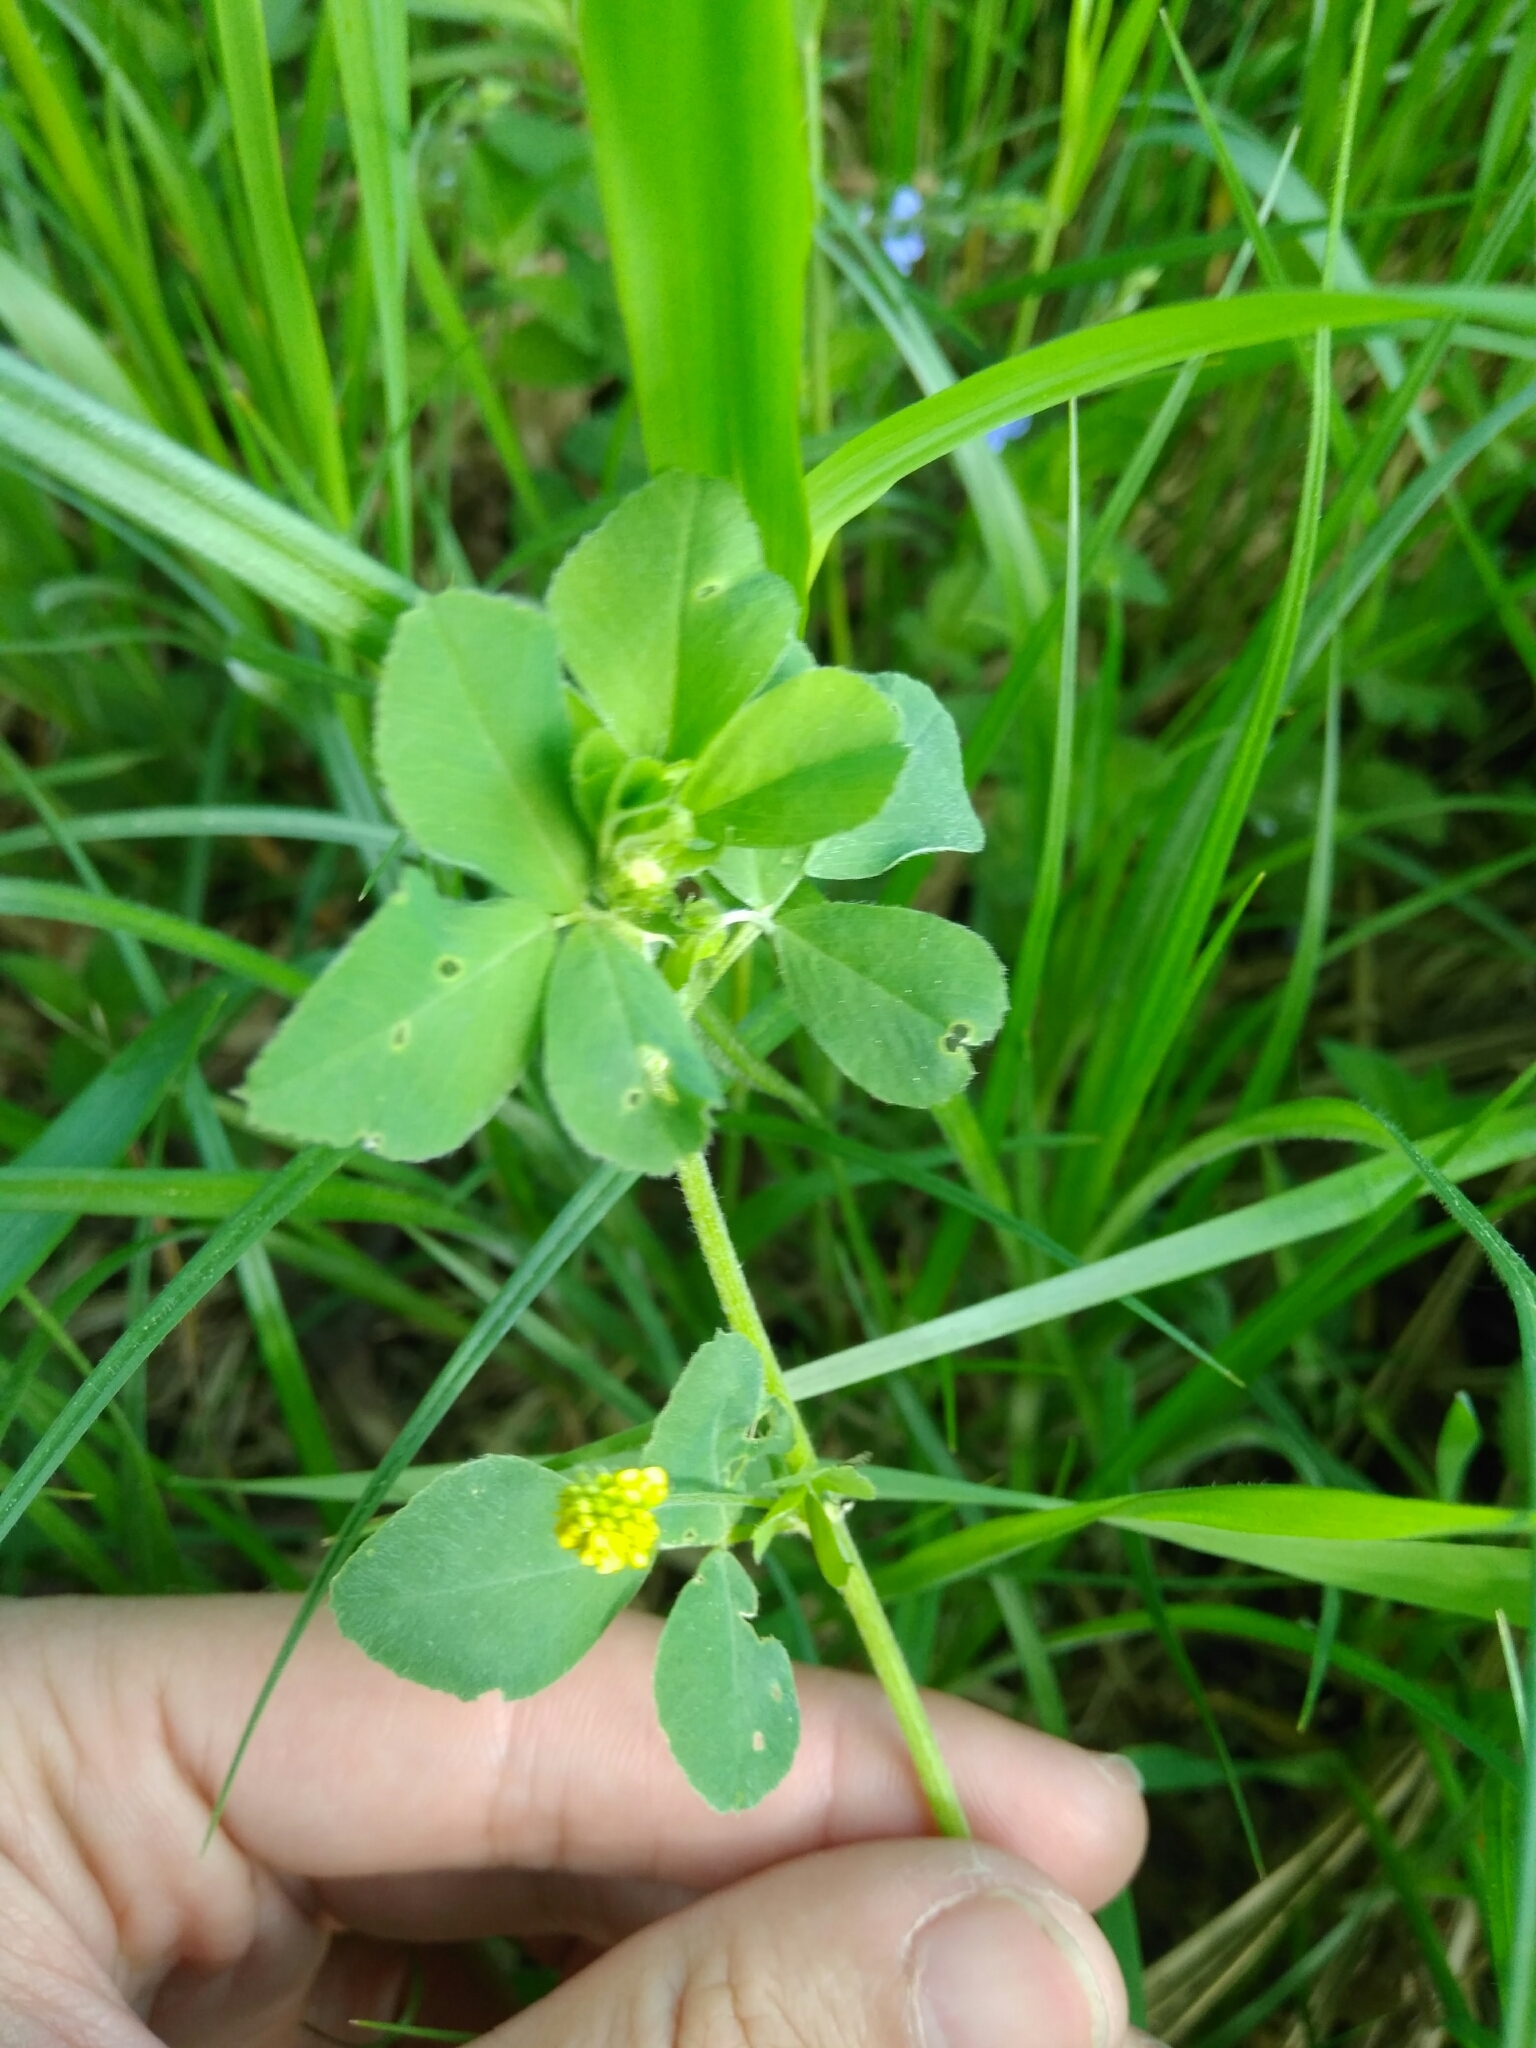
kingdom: Plantae
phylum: Tracheophyta
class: Magnoliopsida
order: Fabales
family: Fabaceae
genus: Medicago
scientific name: Medicago lupulina
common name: Black medick
